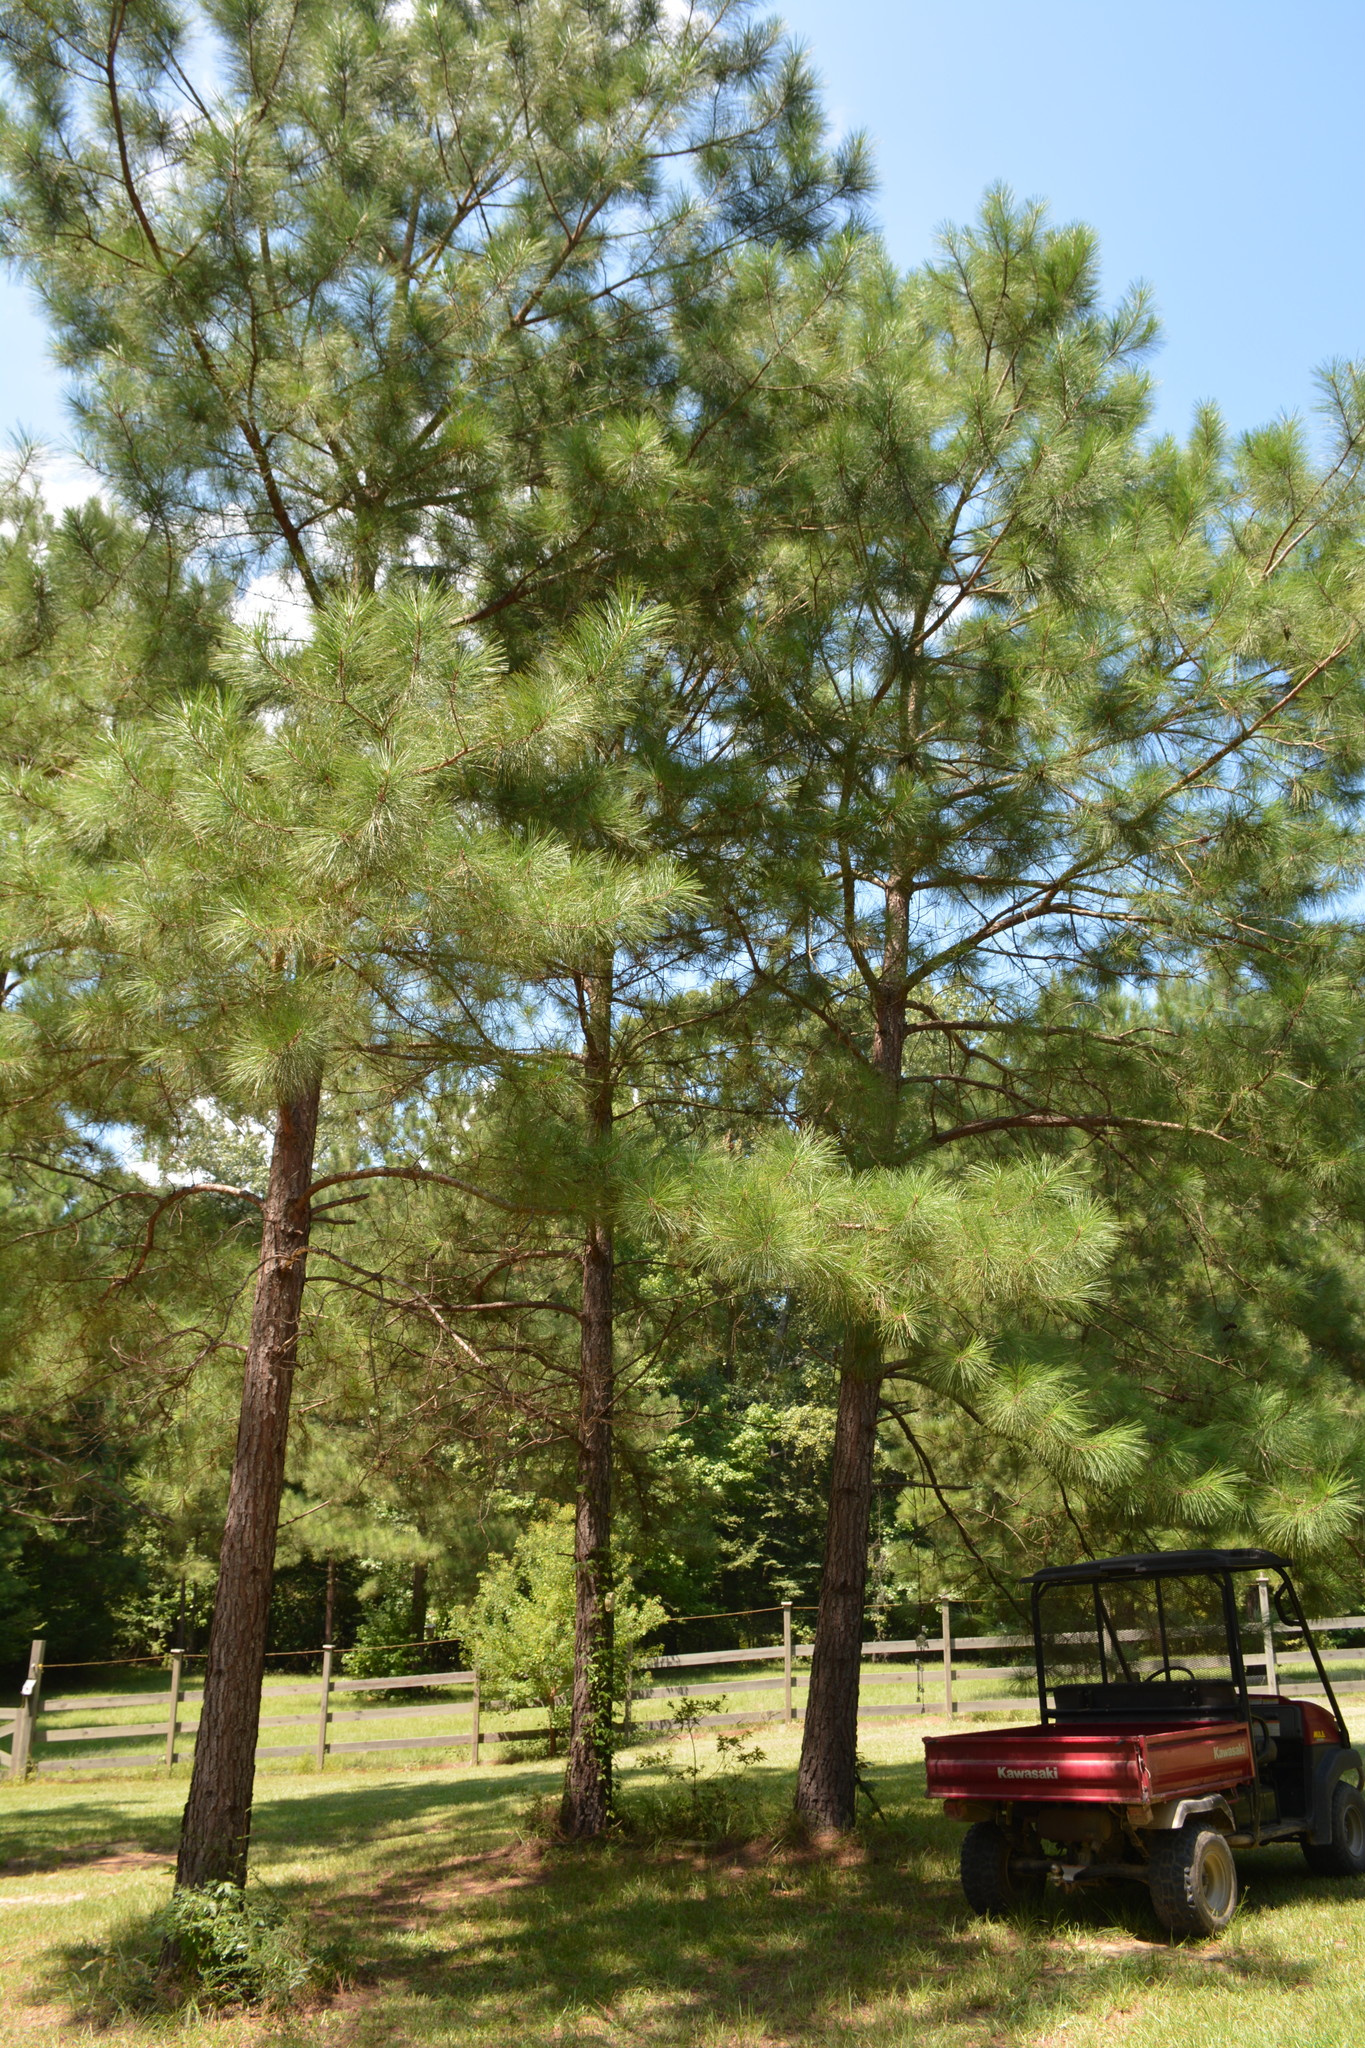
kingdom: Plantae
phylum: Tracheophyta
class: Pinopsida
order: Pinales
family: Pinaceae
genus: Pinus
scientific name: Pinus taeda
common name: Loblolly pine
